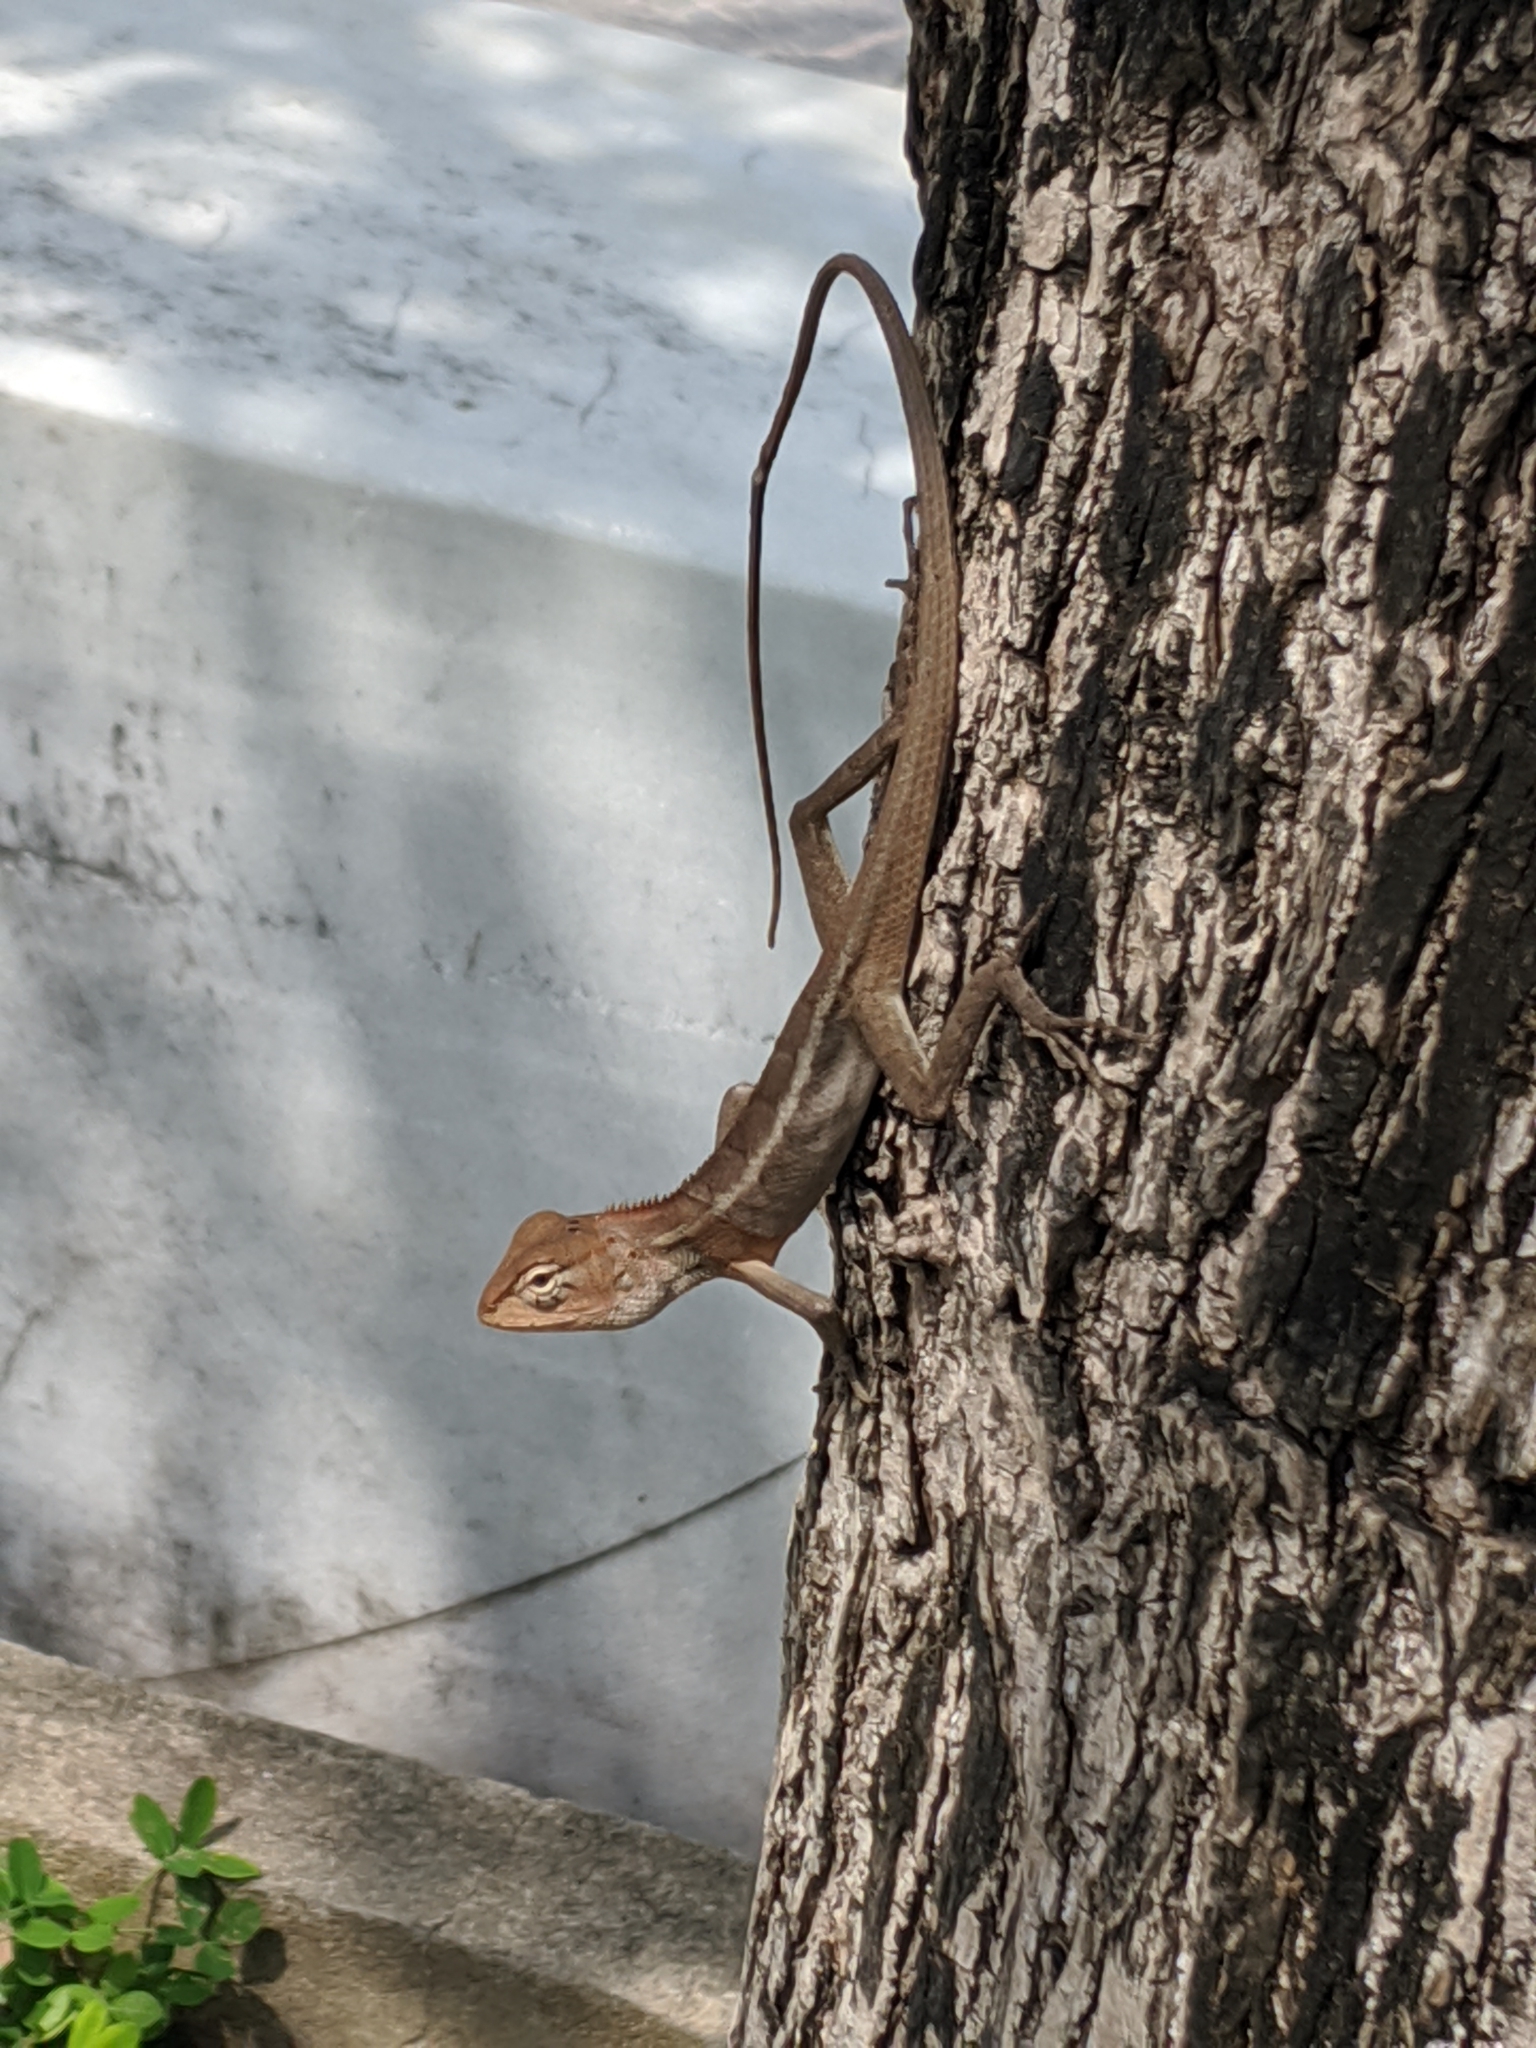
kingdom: Animalia
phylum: Chordata
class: Squamata
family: Agamidae
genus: Calotes
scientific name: Calotes versicolor
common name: Oriental garden lizard
